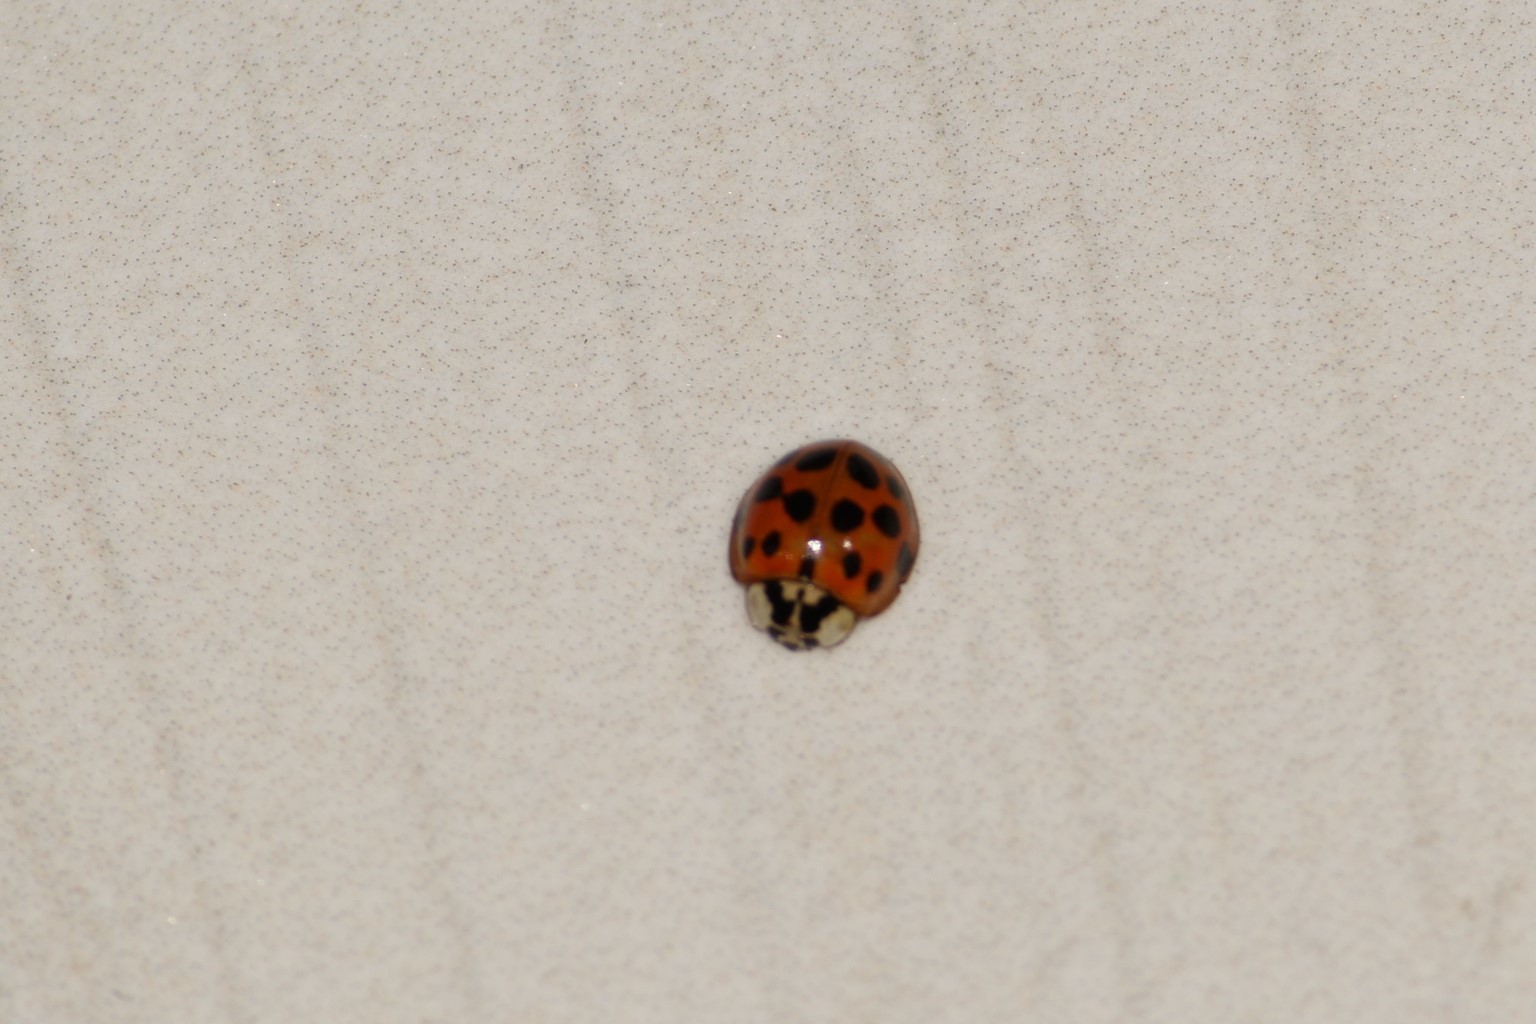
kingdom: Animalia
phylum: Arthropoda
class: Insecta
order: Coleoptera
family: Coccinellidae
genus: Harmonia
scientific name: Harmonia axyridis
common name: Harlequin ladybird
